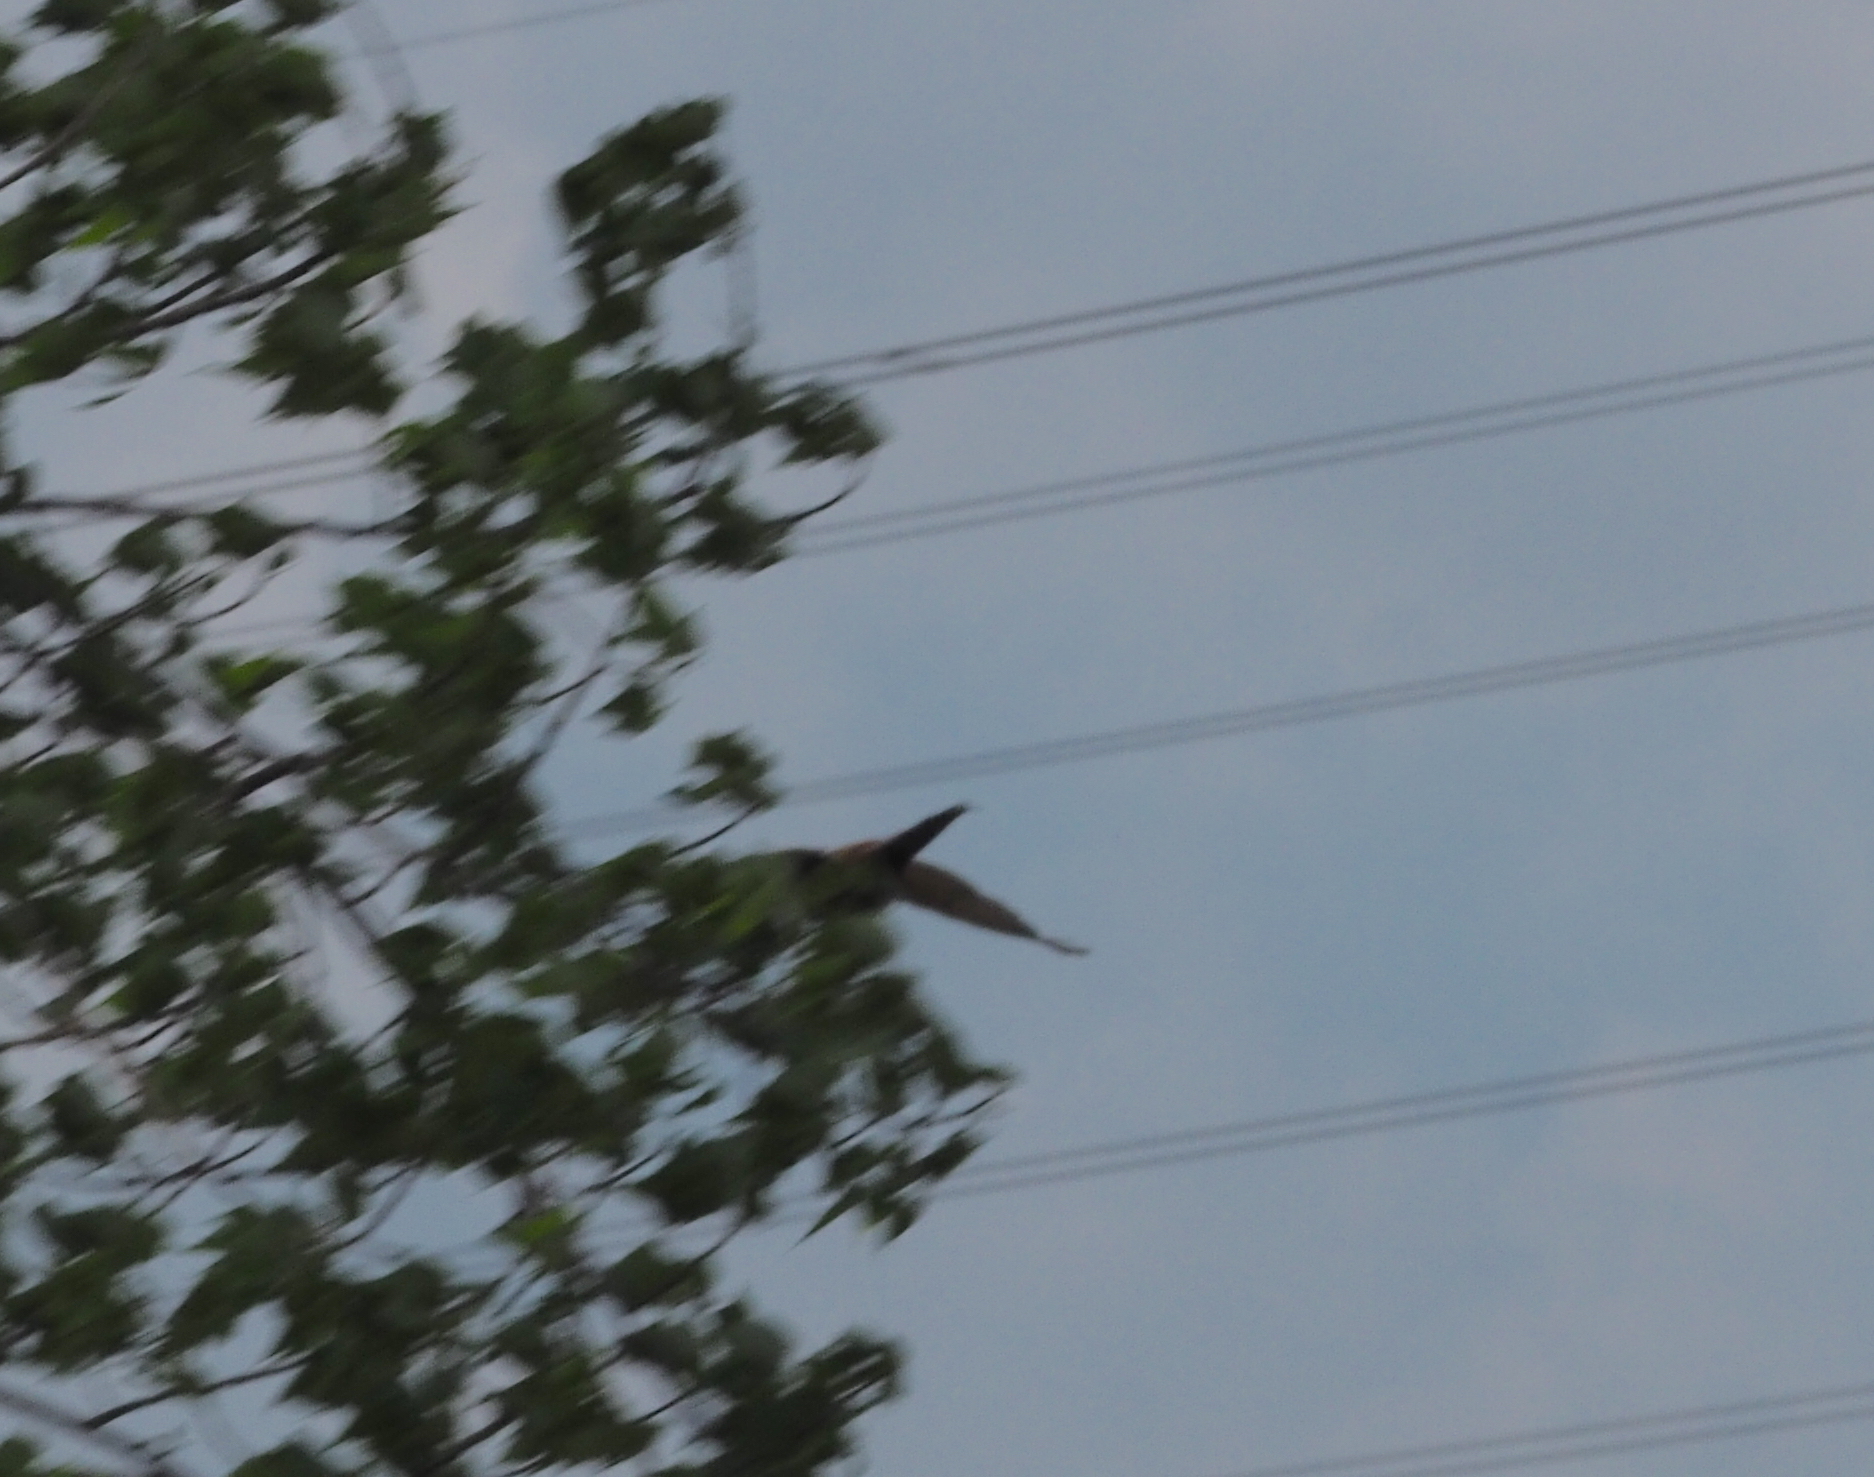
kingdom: Animalia
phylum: Chordata
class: Aves
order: Galliformes
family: Phasianidae
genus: Phasianus
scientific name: Phasianus colchicus
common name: Common pheasant
